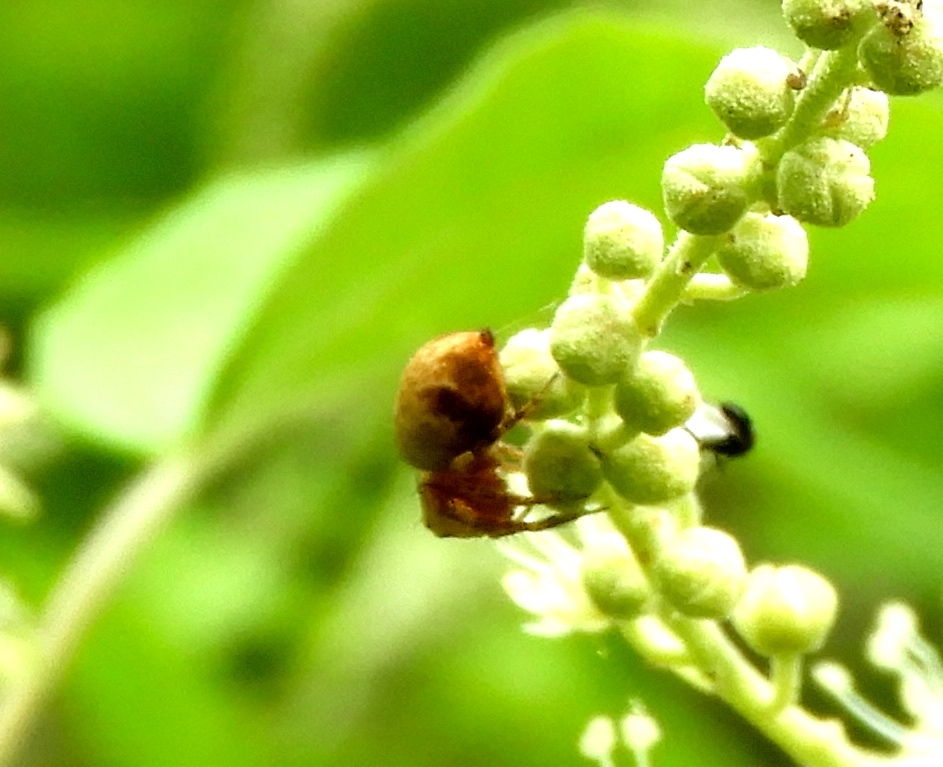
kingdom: Animalia
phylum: Arthropoda
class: Arachnida
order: Araneae
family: Oxyopidae
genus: Hamataliwa
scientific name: Hamataliwa
